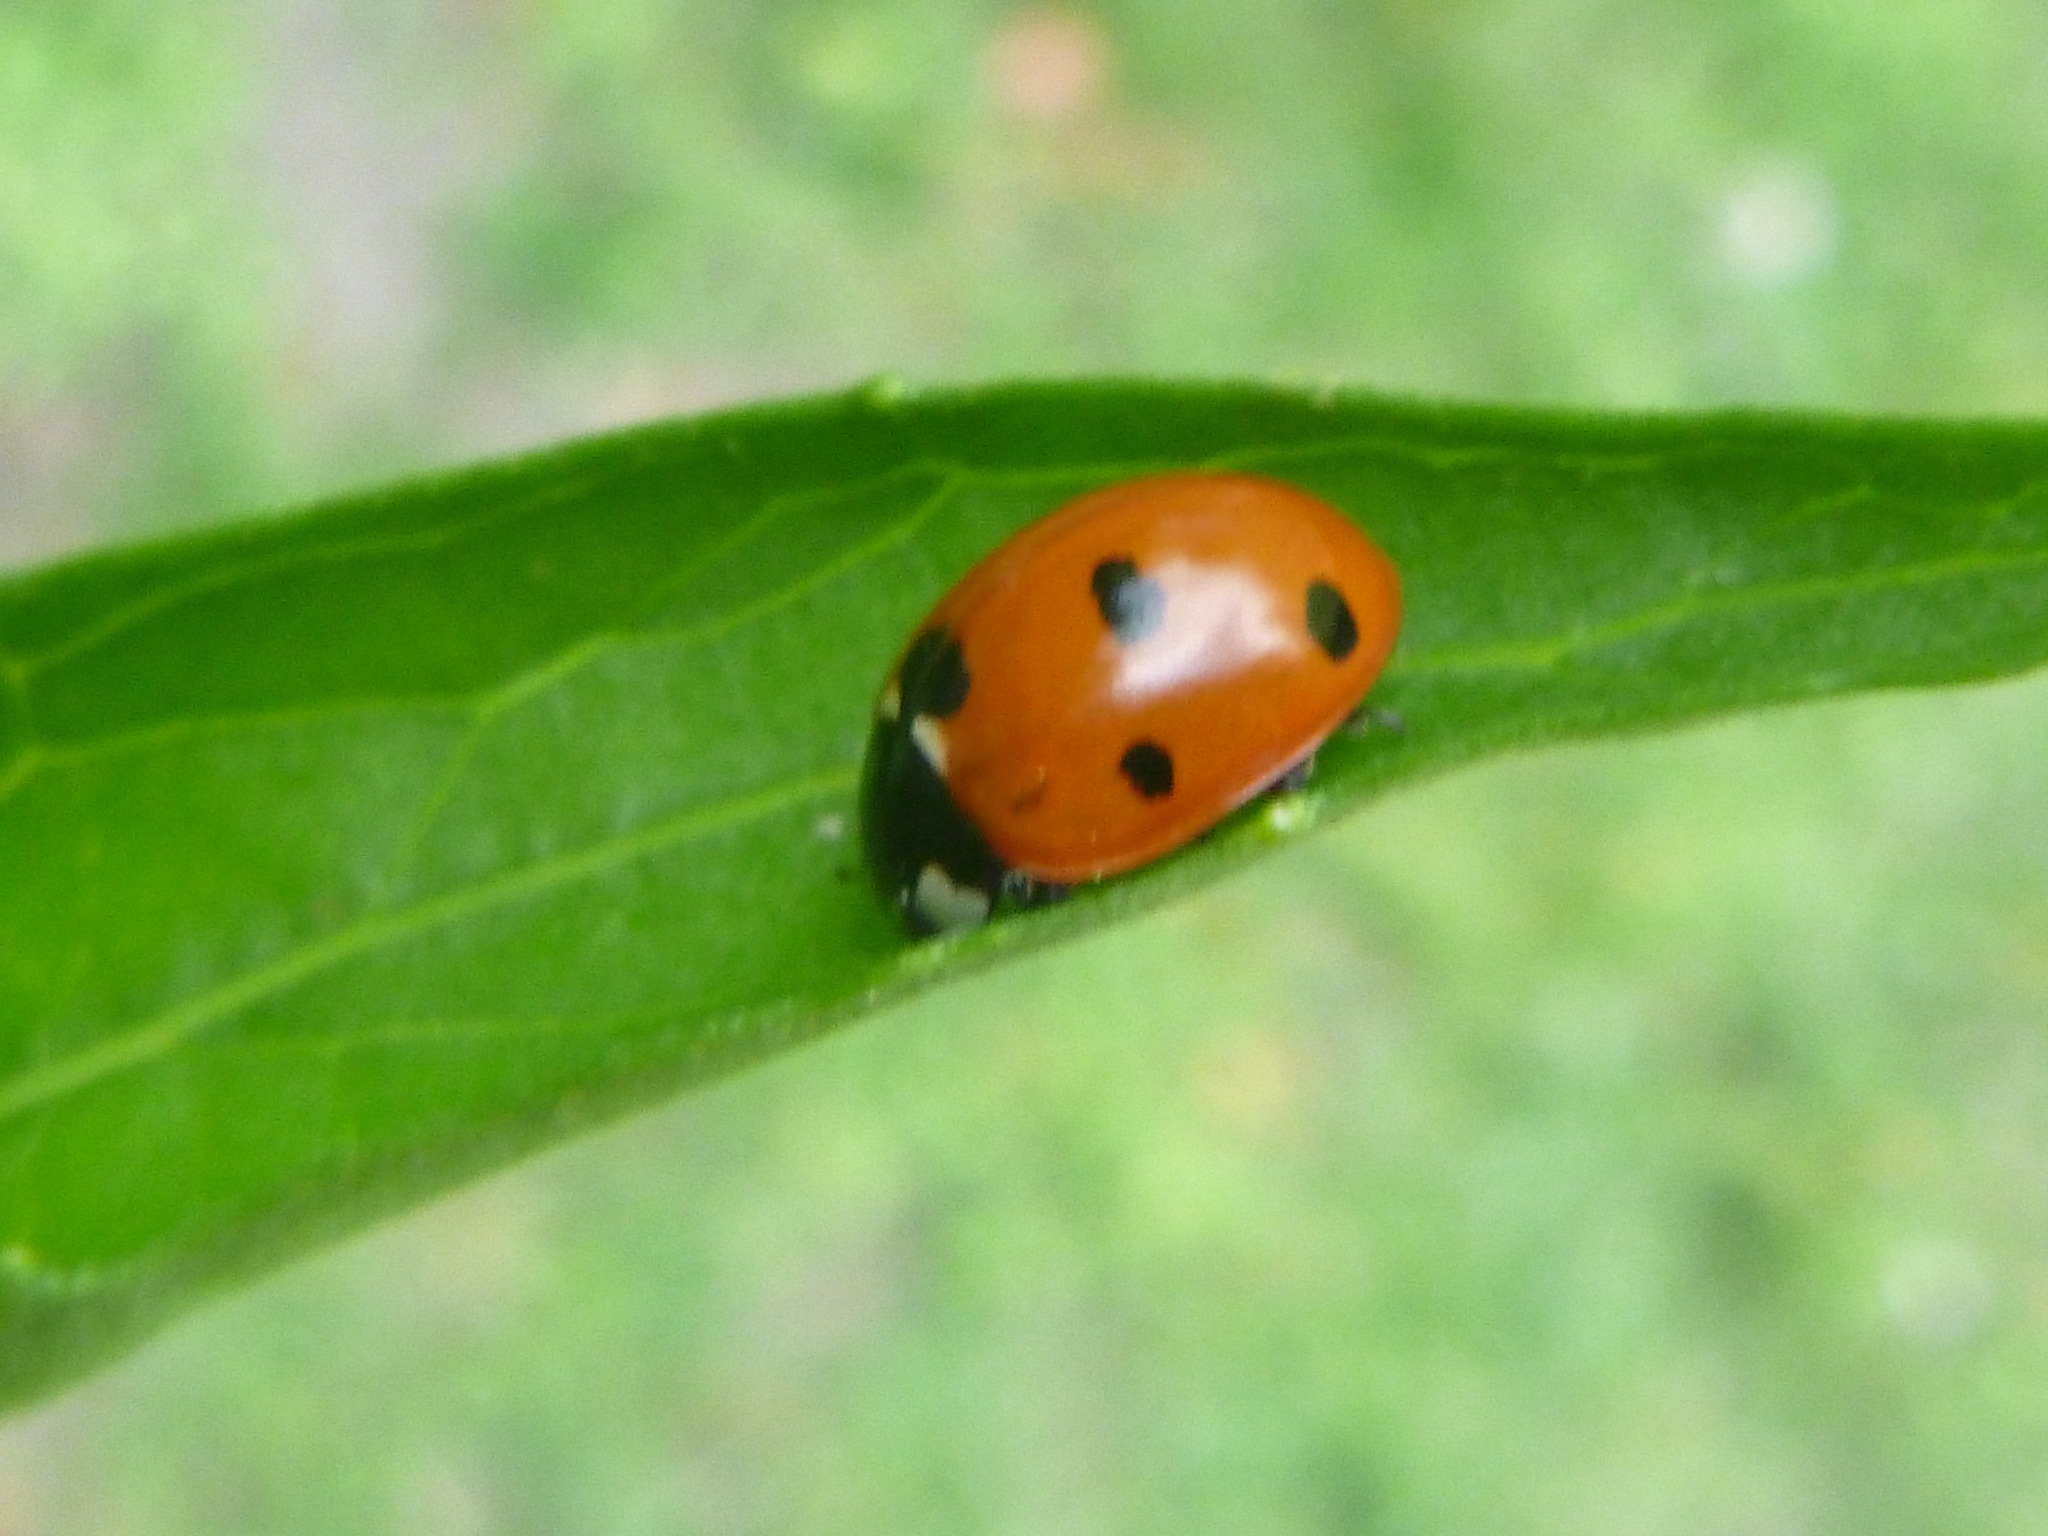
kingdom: Animalia
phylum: Arthropoda
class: Insecta
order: Coleoptera
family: Coccinellidae
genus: Coccinella
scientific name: Coccinella septempunctata
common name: Sevenspotted lady beetle
